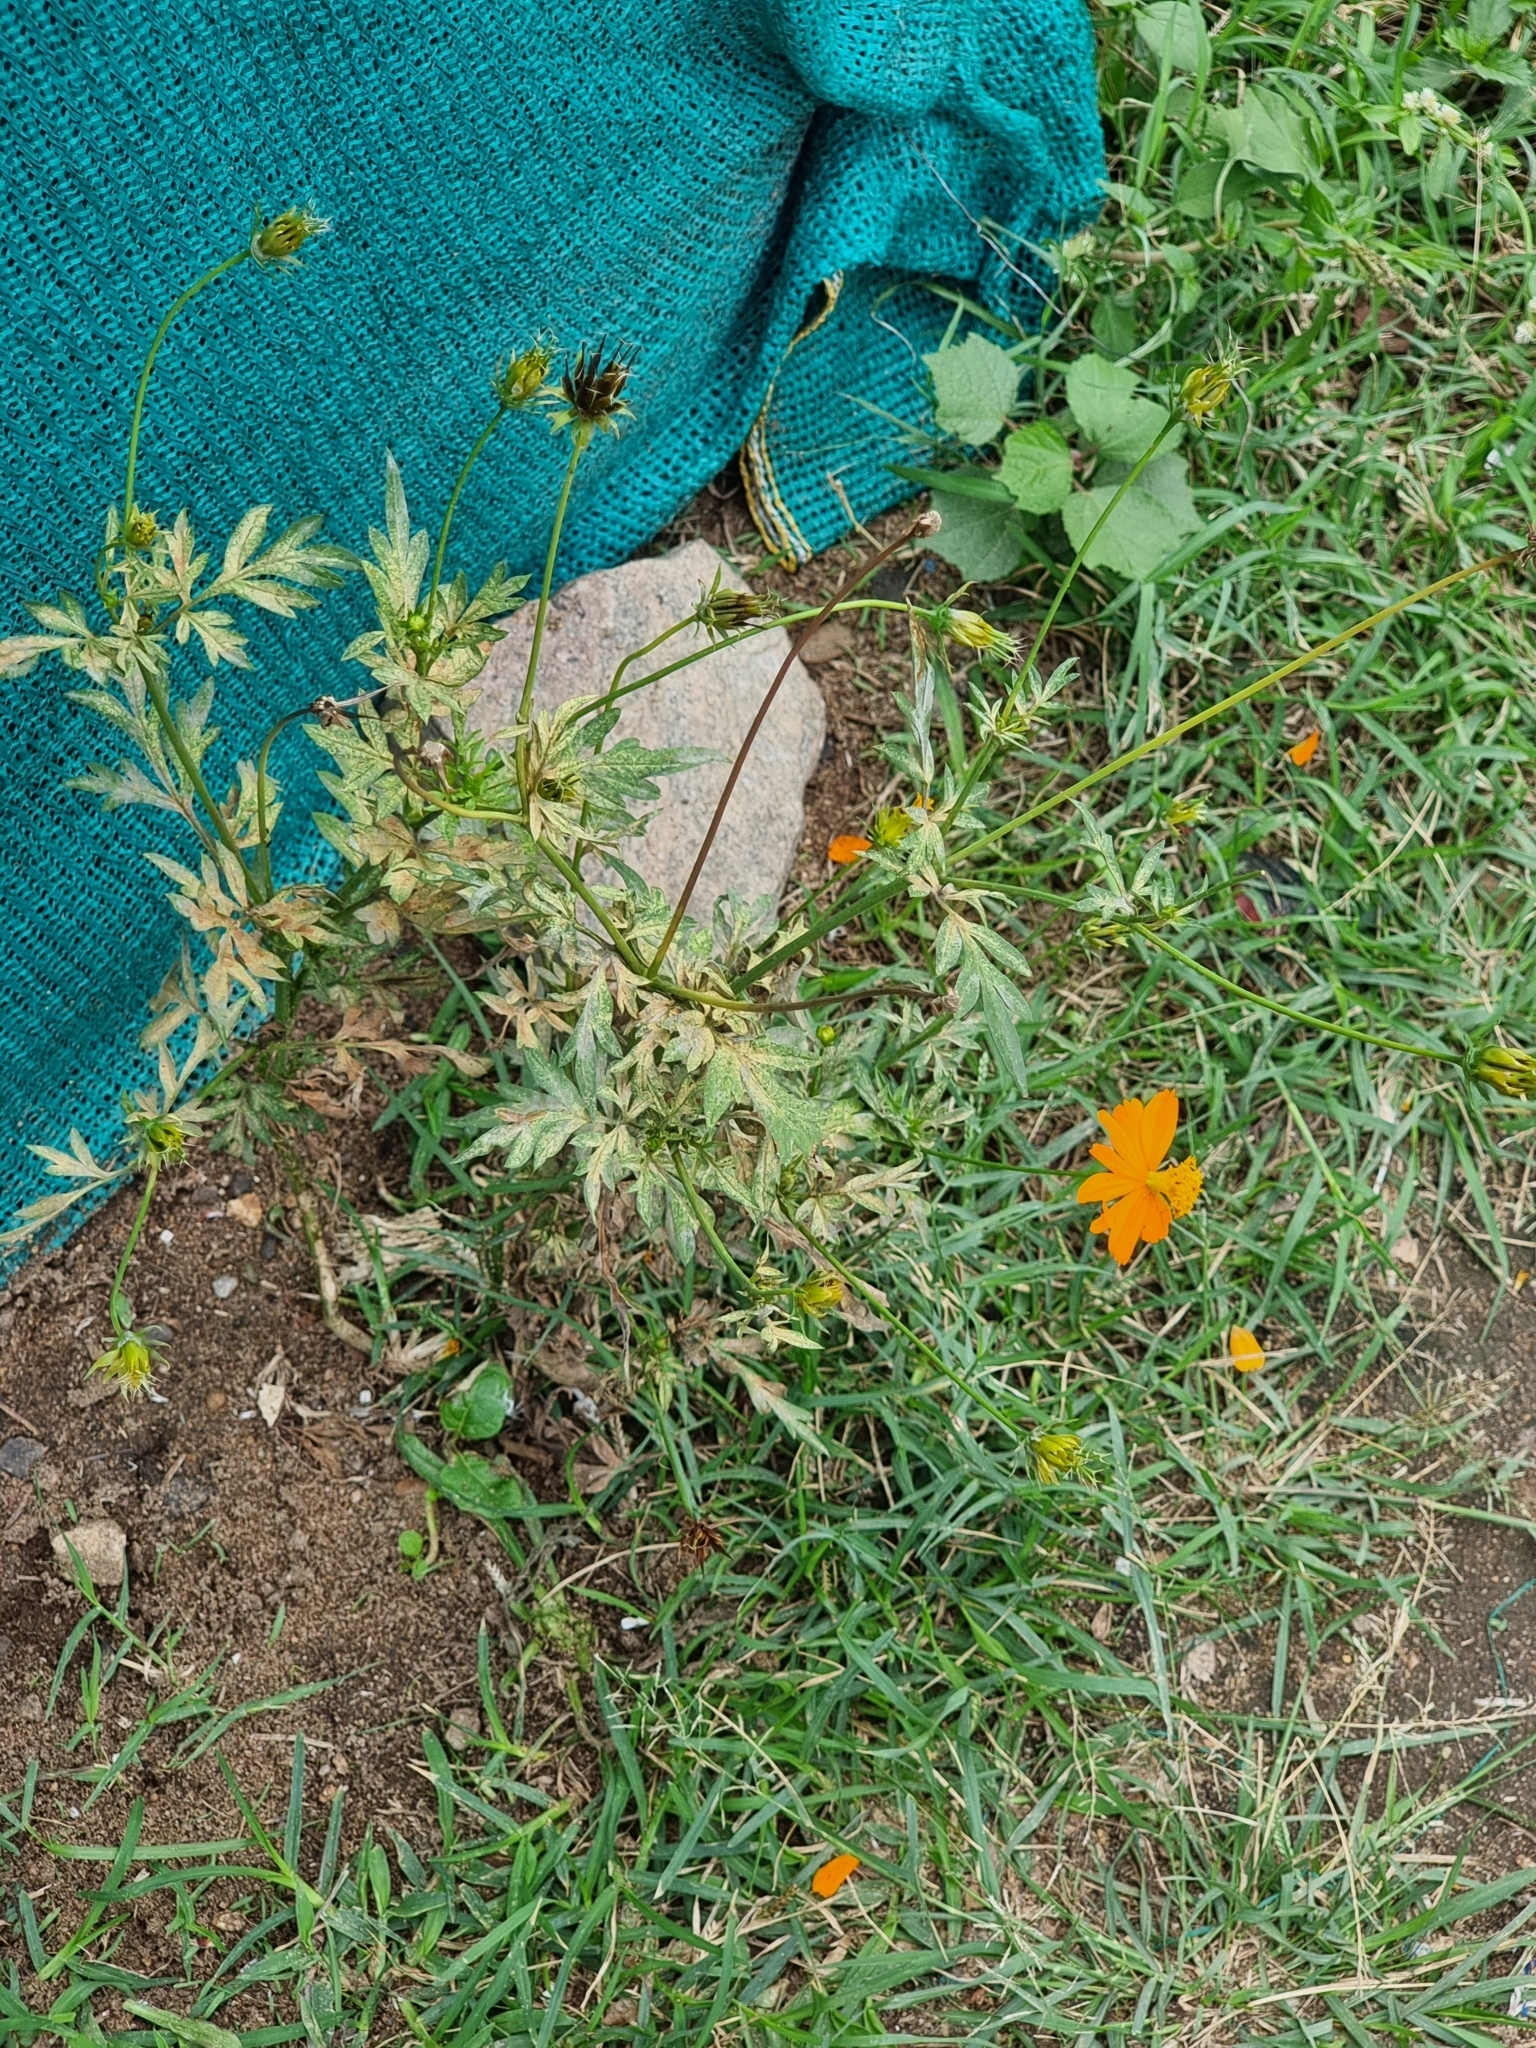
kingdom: Plantae
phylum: Tracheophyta
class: Magnoliopsida
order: Asterales
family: Asteraceae
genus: Cosmos
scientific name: Cosmos sulphureus
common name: Sulphur cosmos
